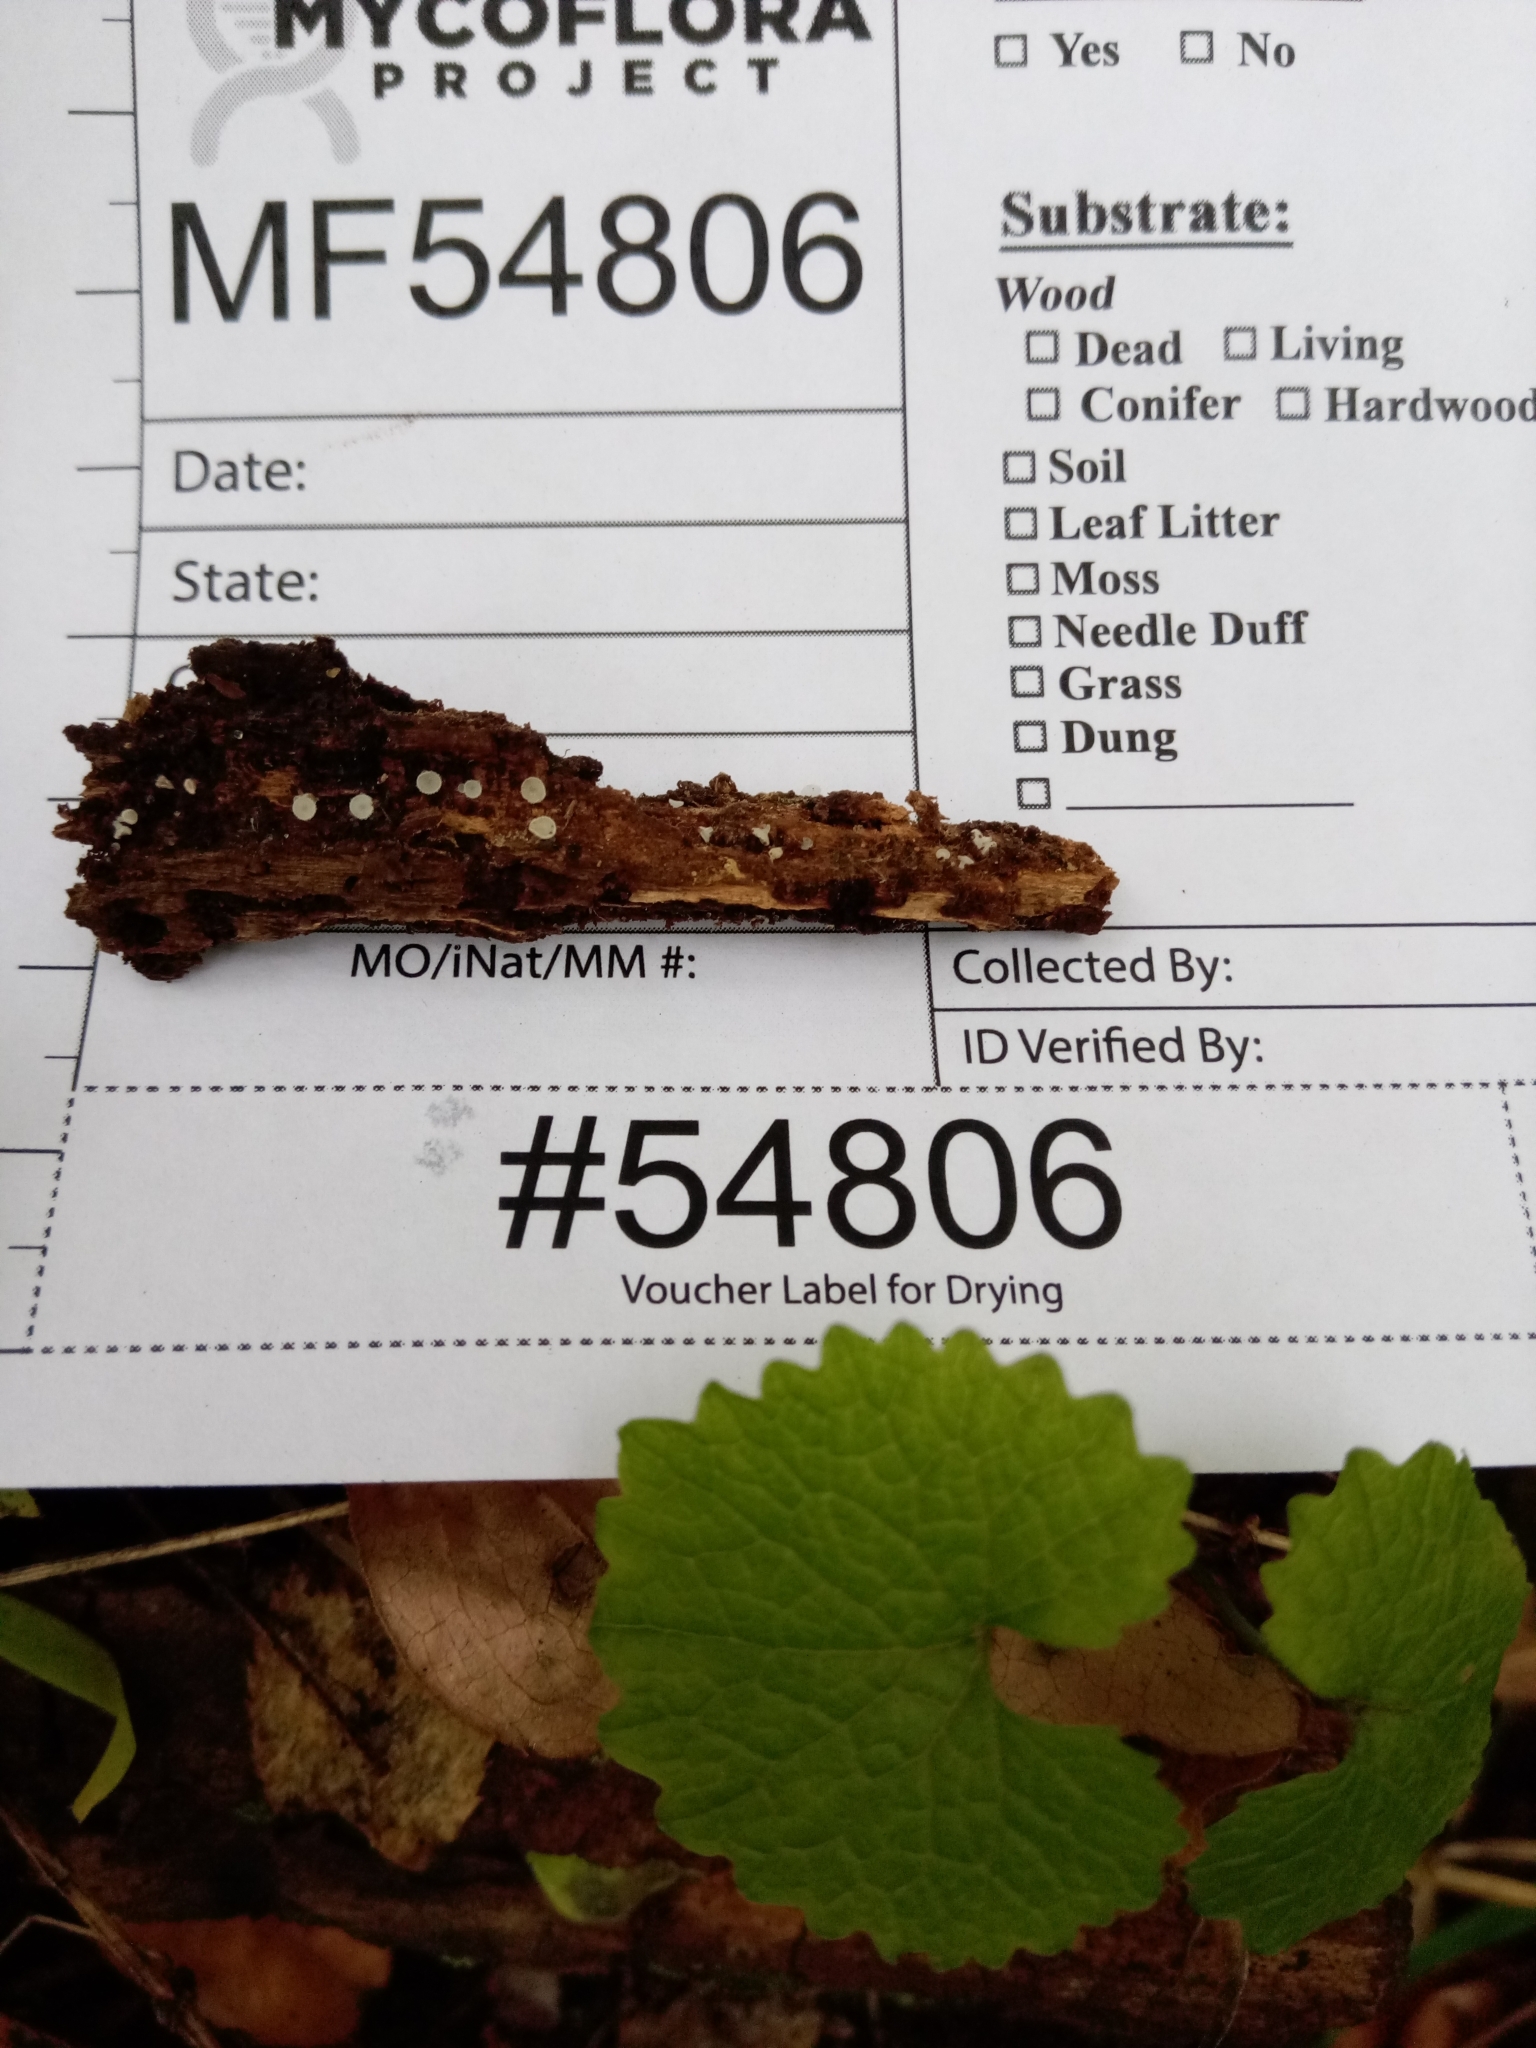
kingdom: Fungi
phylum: Ascomycota
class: Leotiomycetes
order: Helotiales
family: Lachnaceae
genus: Dasyscyphella
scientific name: Dasyscyphella nivea
